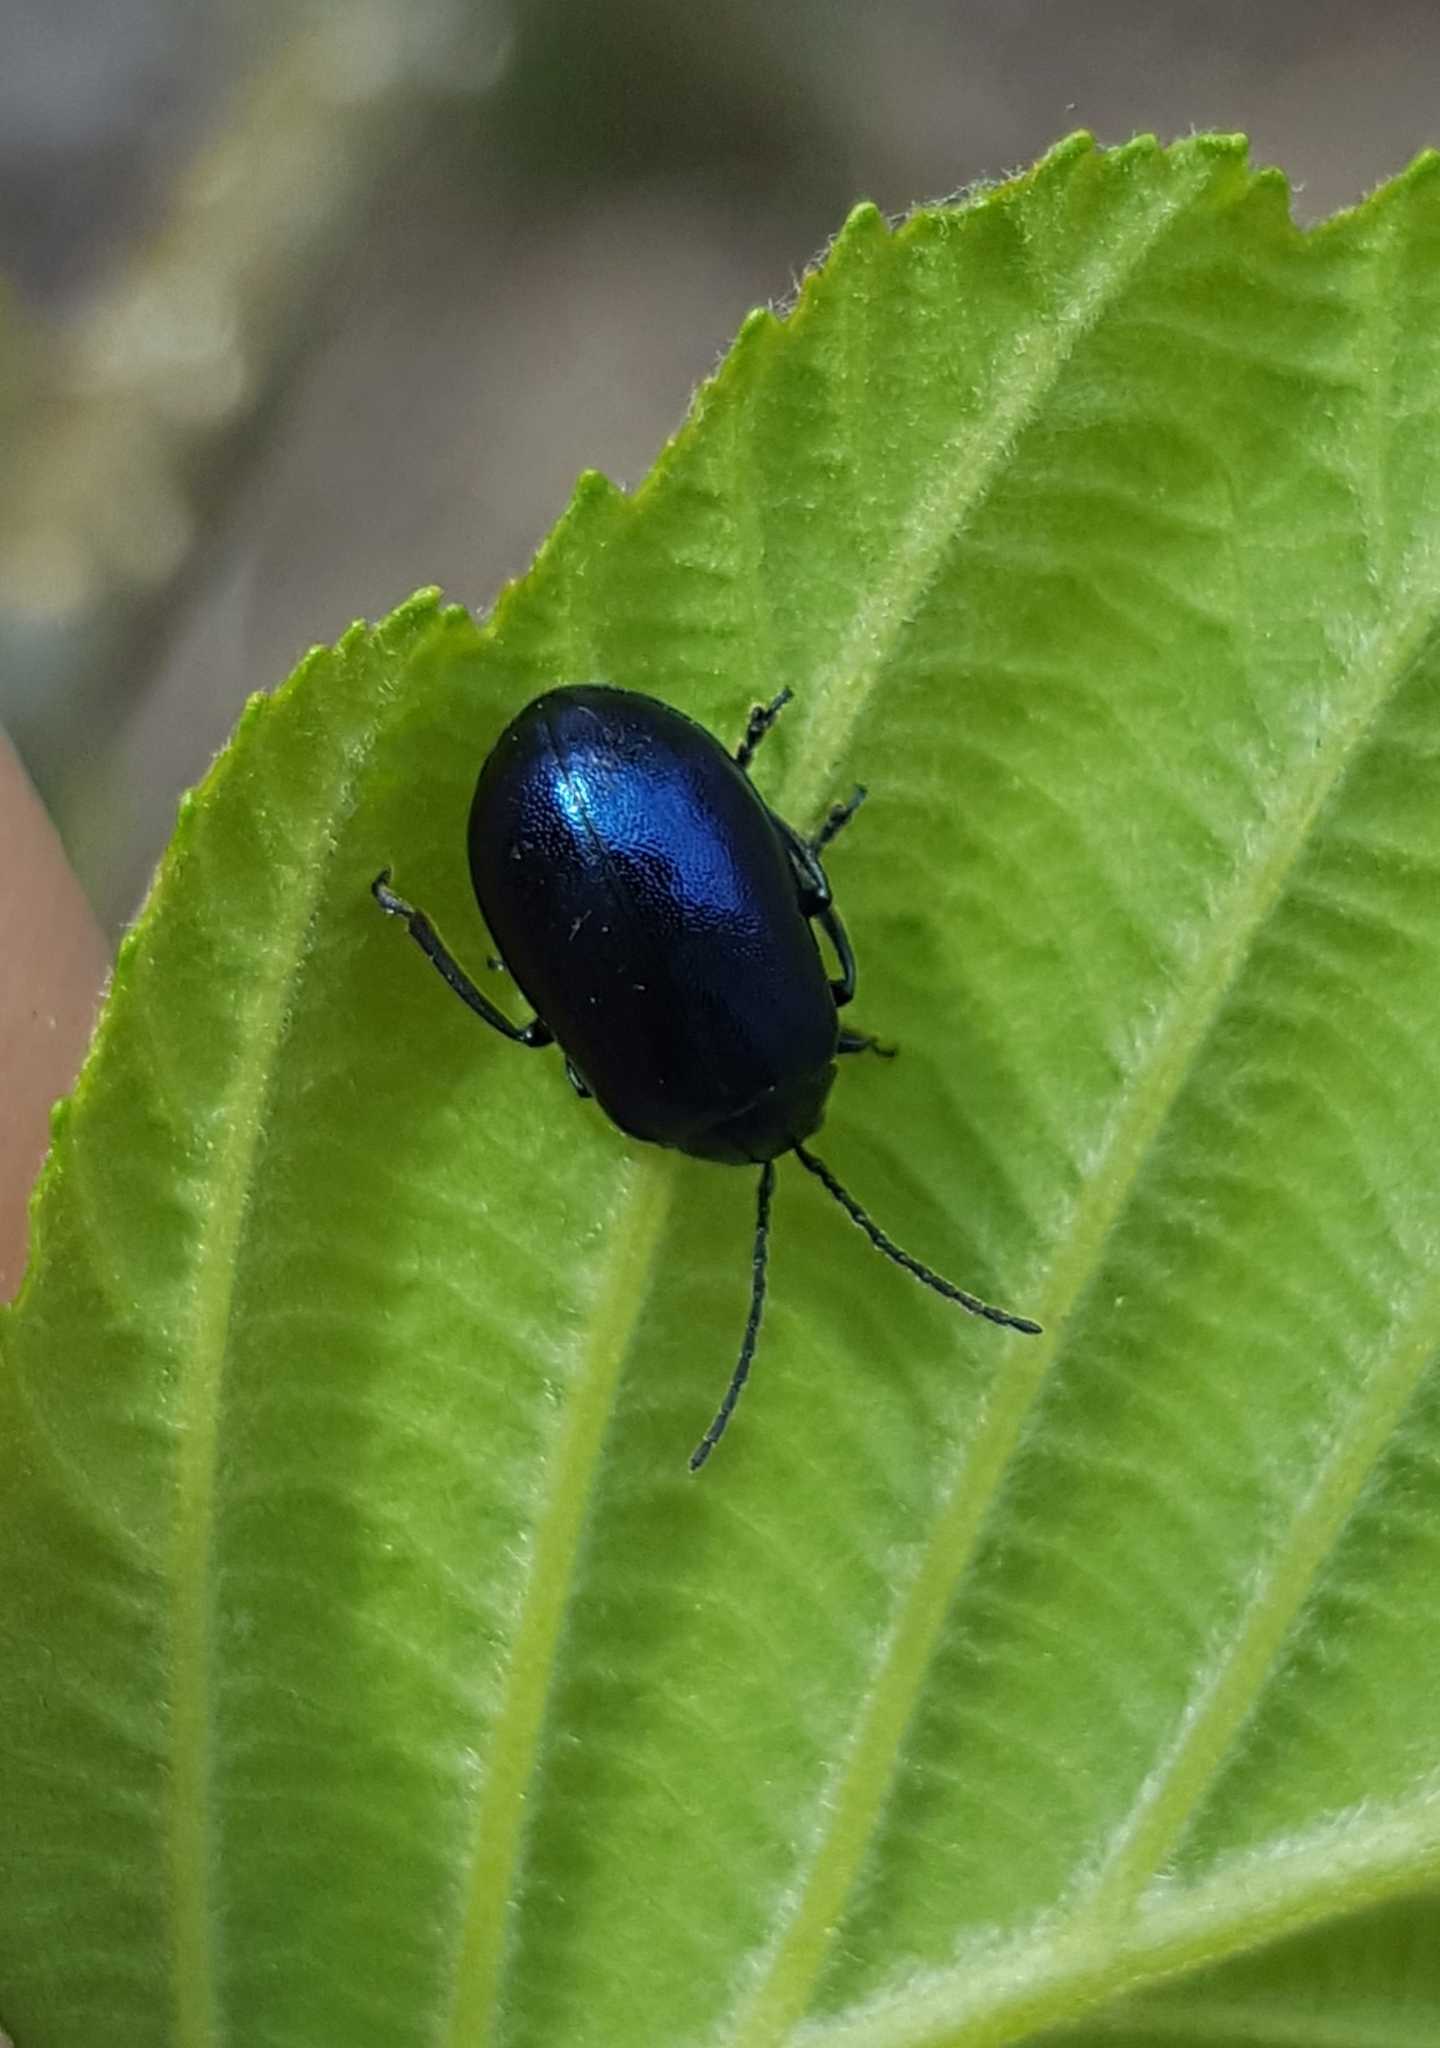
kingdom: Animalia
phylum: Arthropoda
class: Insecta
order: Coleoptera
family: Chrysomelidae
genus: Agelastica
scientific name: Agelastica alni
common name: Alder leaf beetle
